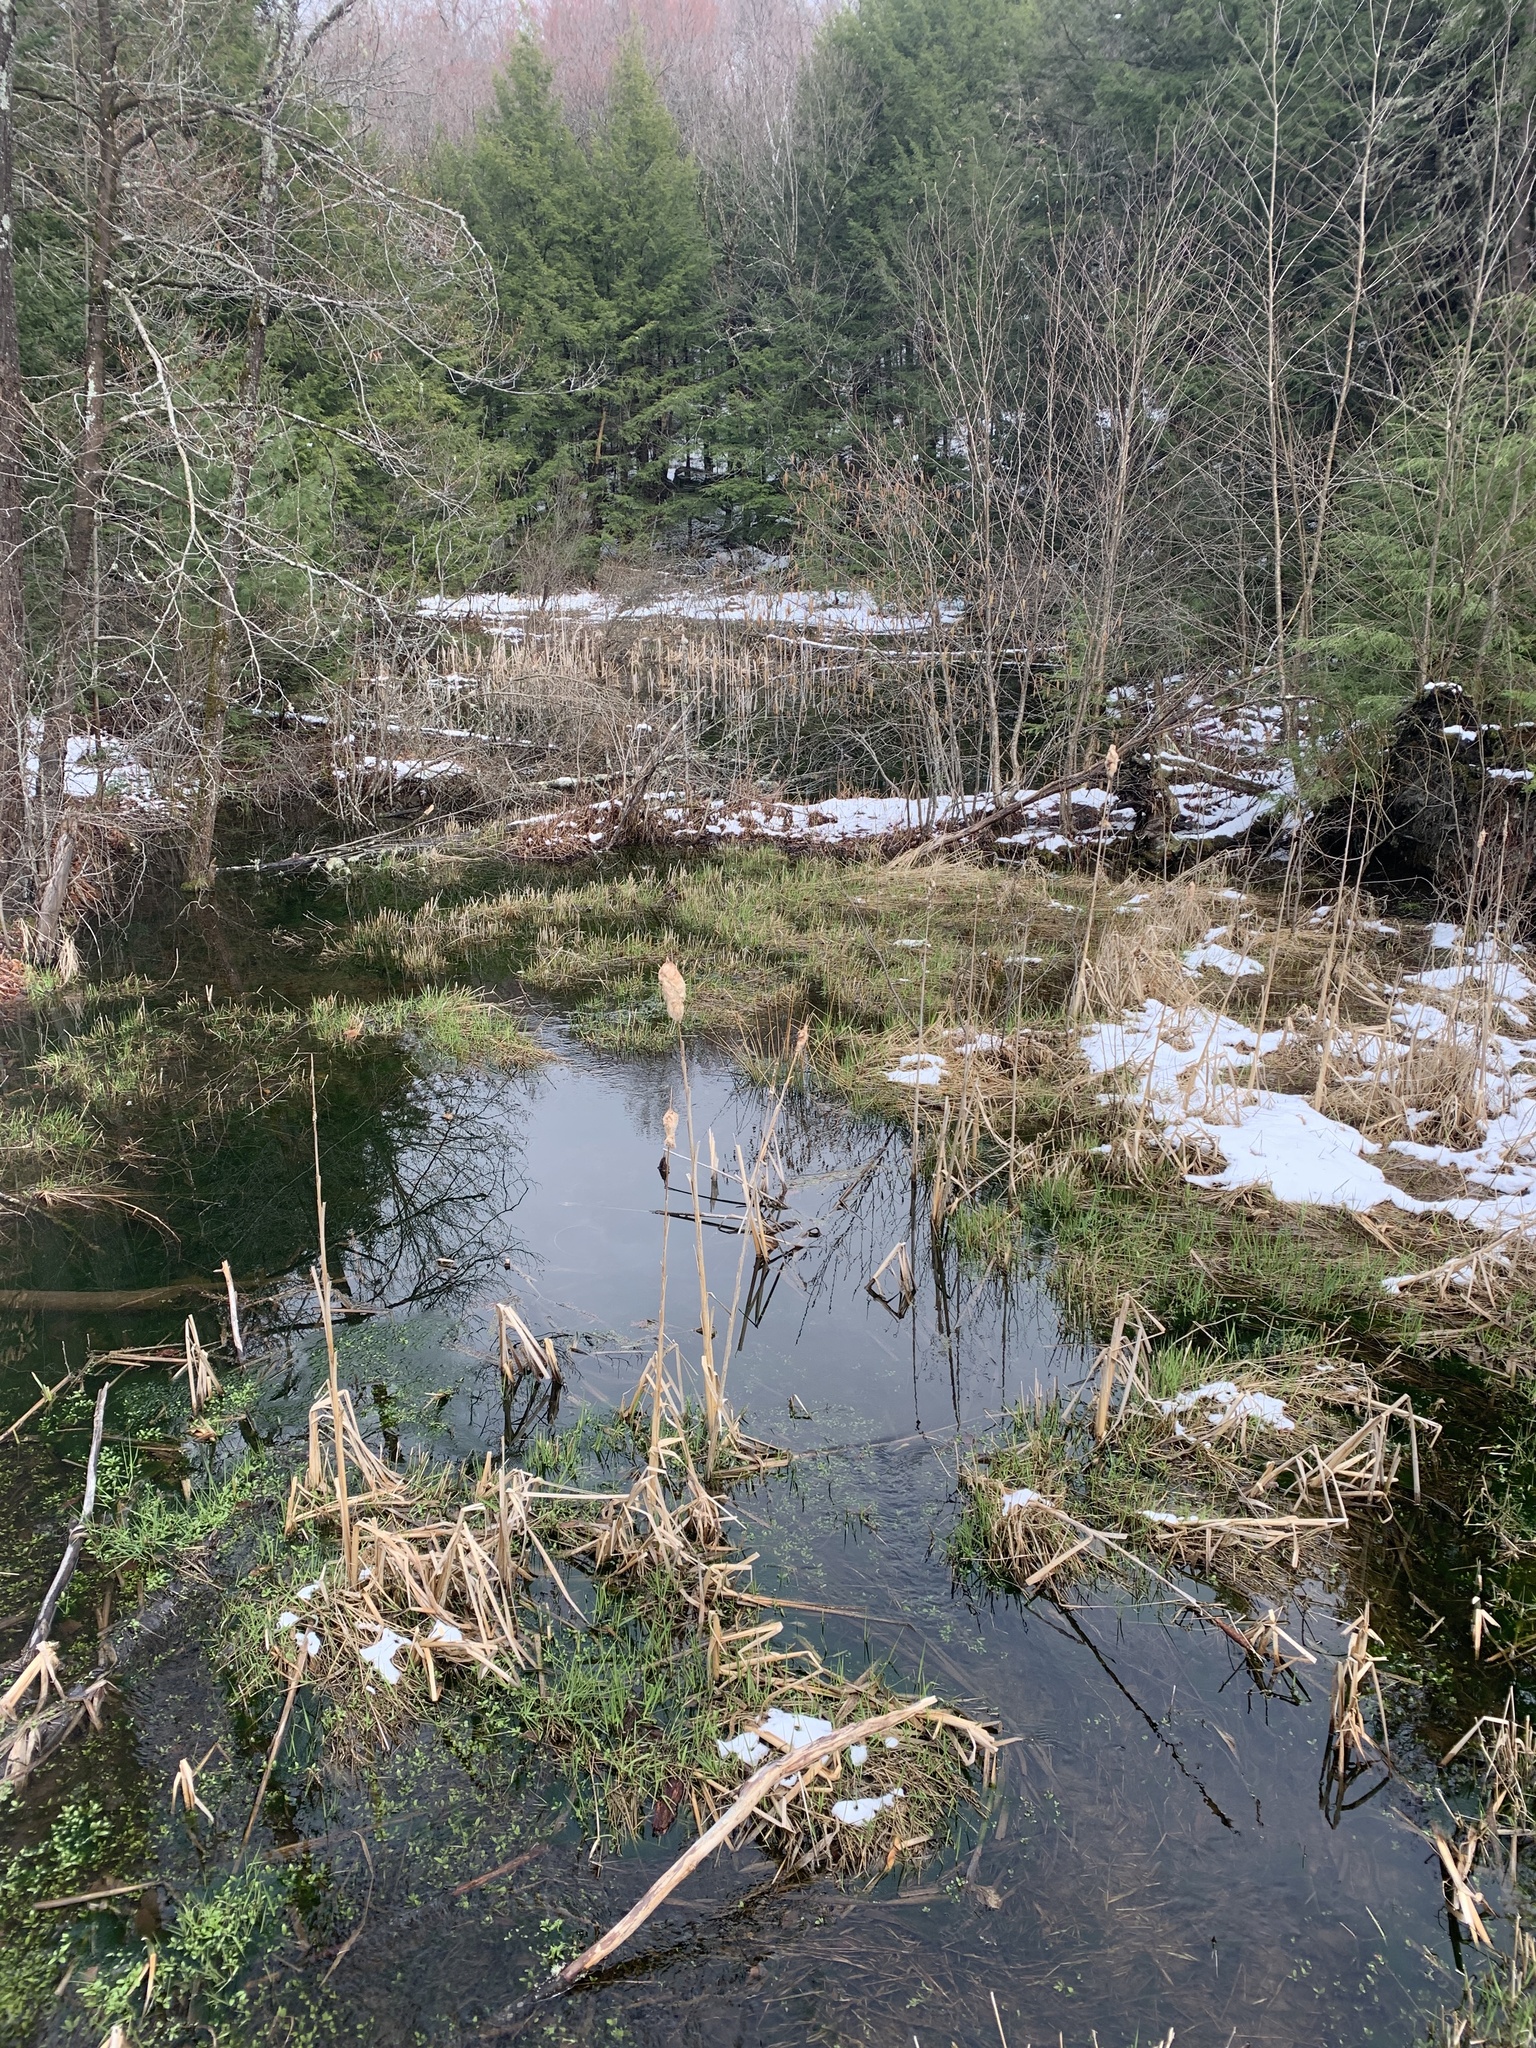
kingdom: Plantae
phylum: Tracheophyta
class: Liliopsida
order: Poales
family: Typhaceae
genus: Typha
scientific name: Typha latifolia
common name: Broadleaf cattail
